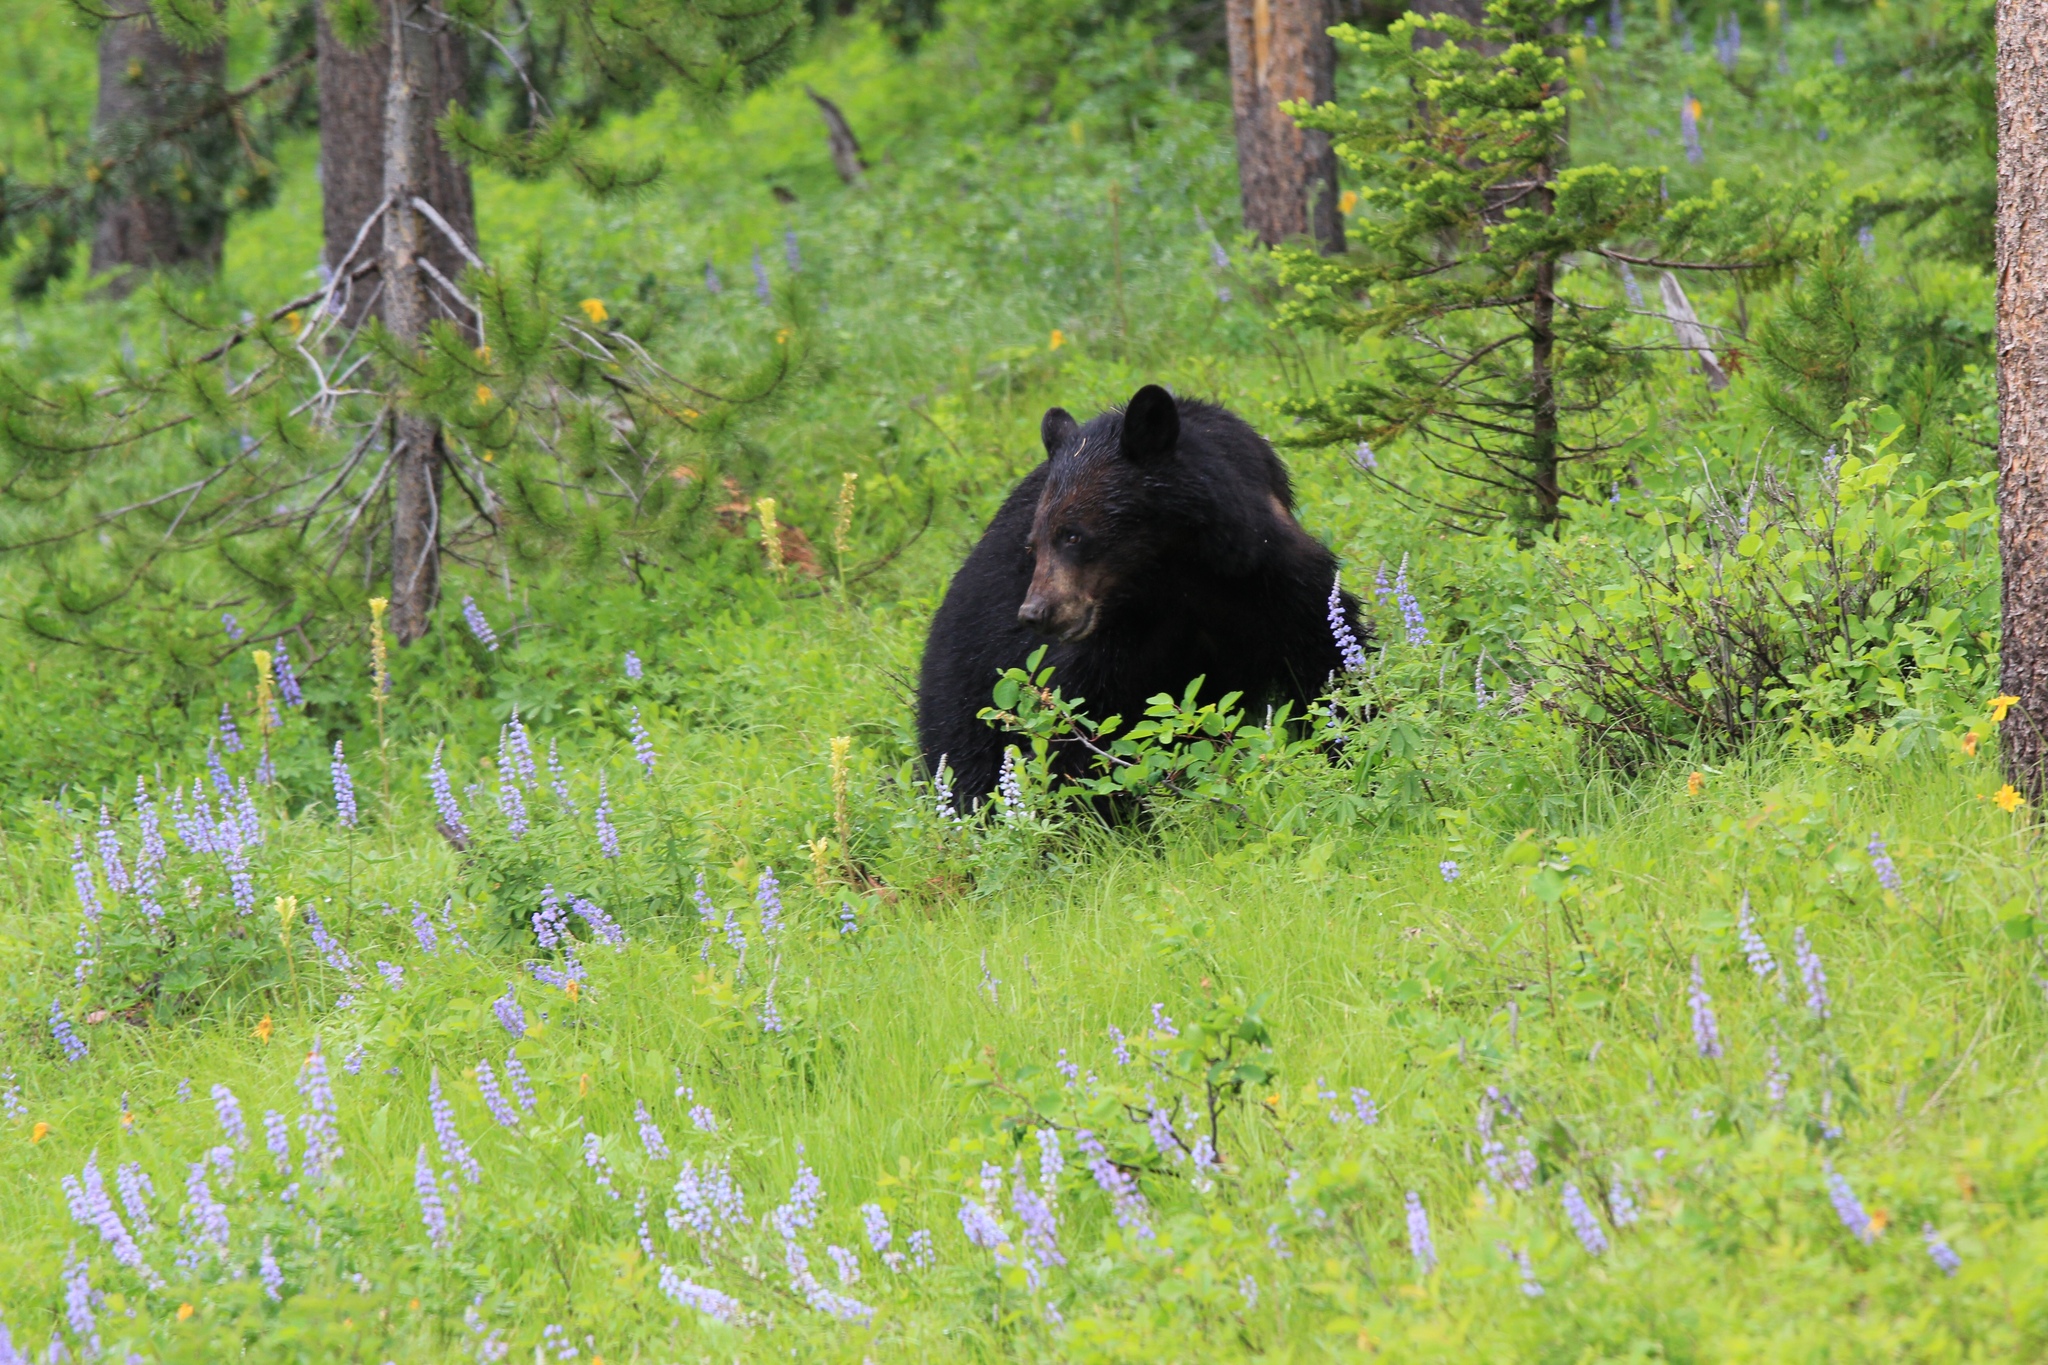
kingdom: Animalia
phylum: Chordata
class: Mammalia
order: Carnivora
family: Ursidae
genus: Ursus
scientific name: Ursus americanus
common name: American black bear
